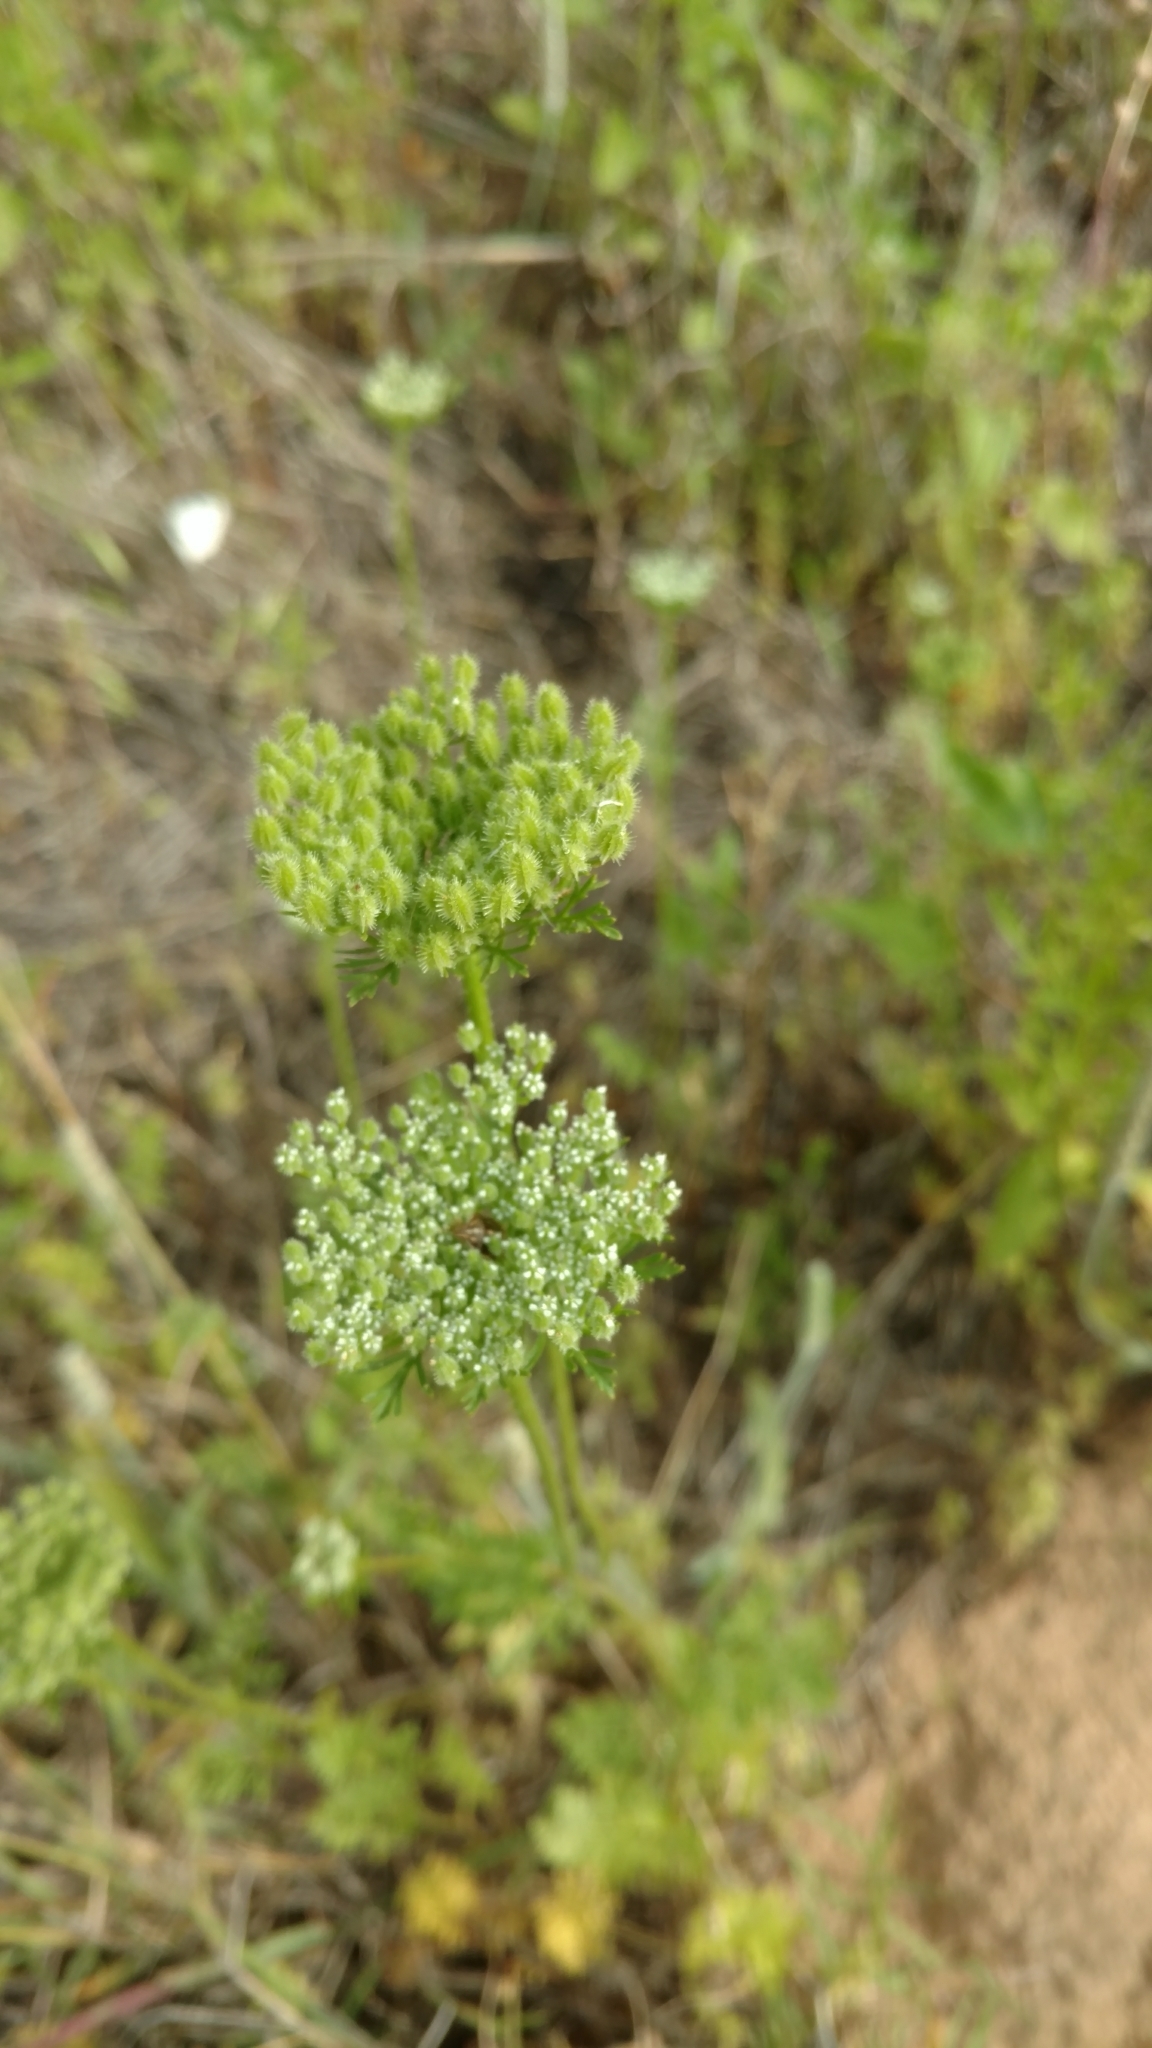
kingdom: Plantae
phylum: Tracheophyta
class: Magnoliopsida
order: Apiales
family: Apiaceae
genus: Daucus
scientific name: Daucus pusillus
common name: Southwest wild carrot
